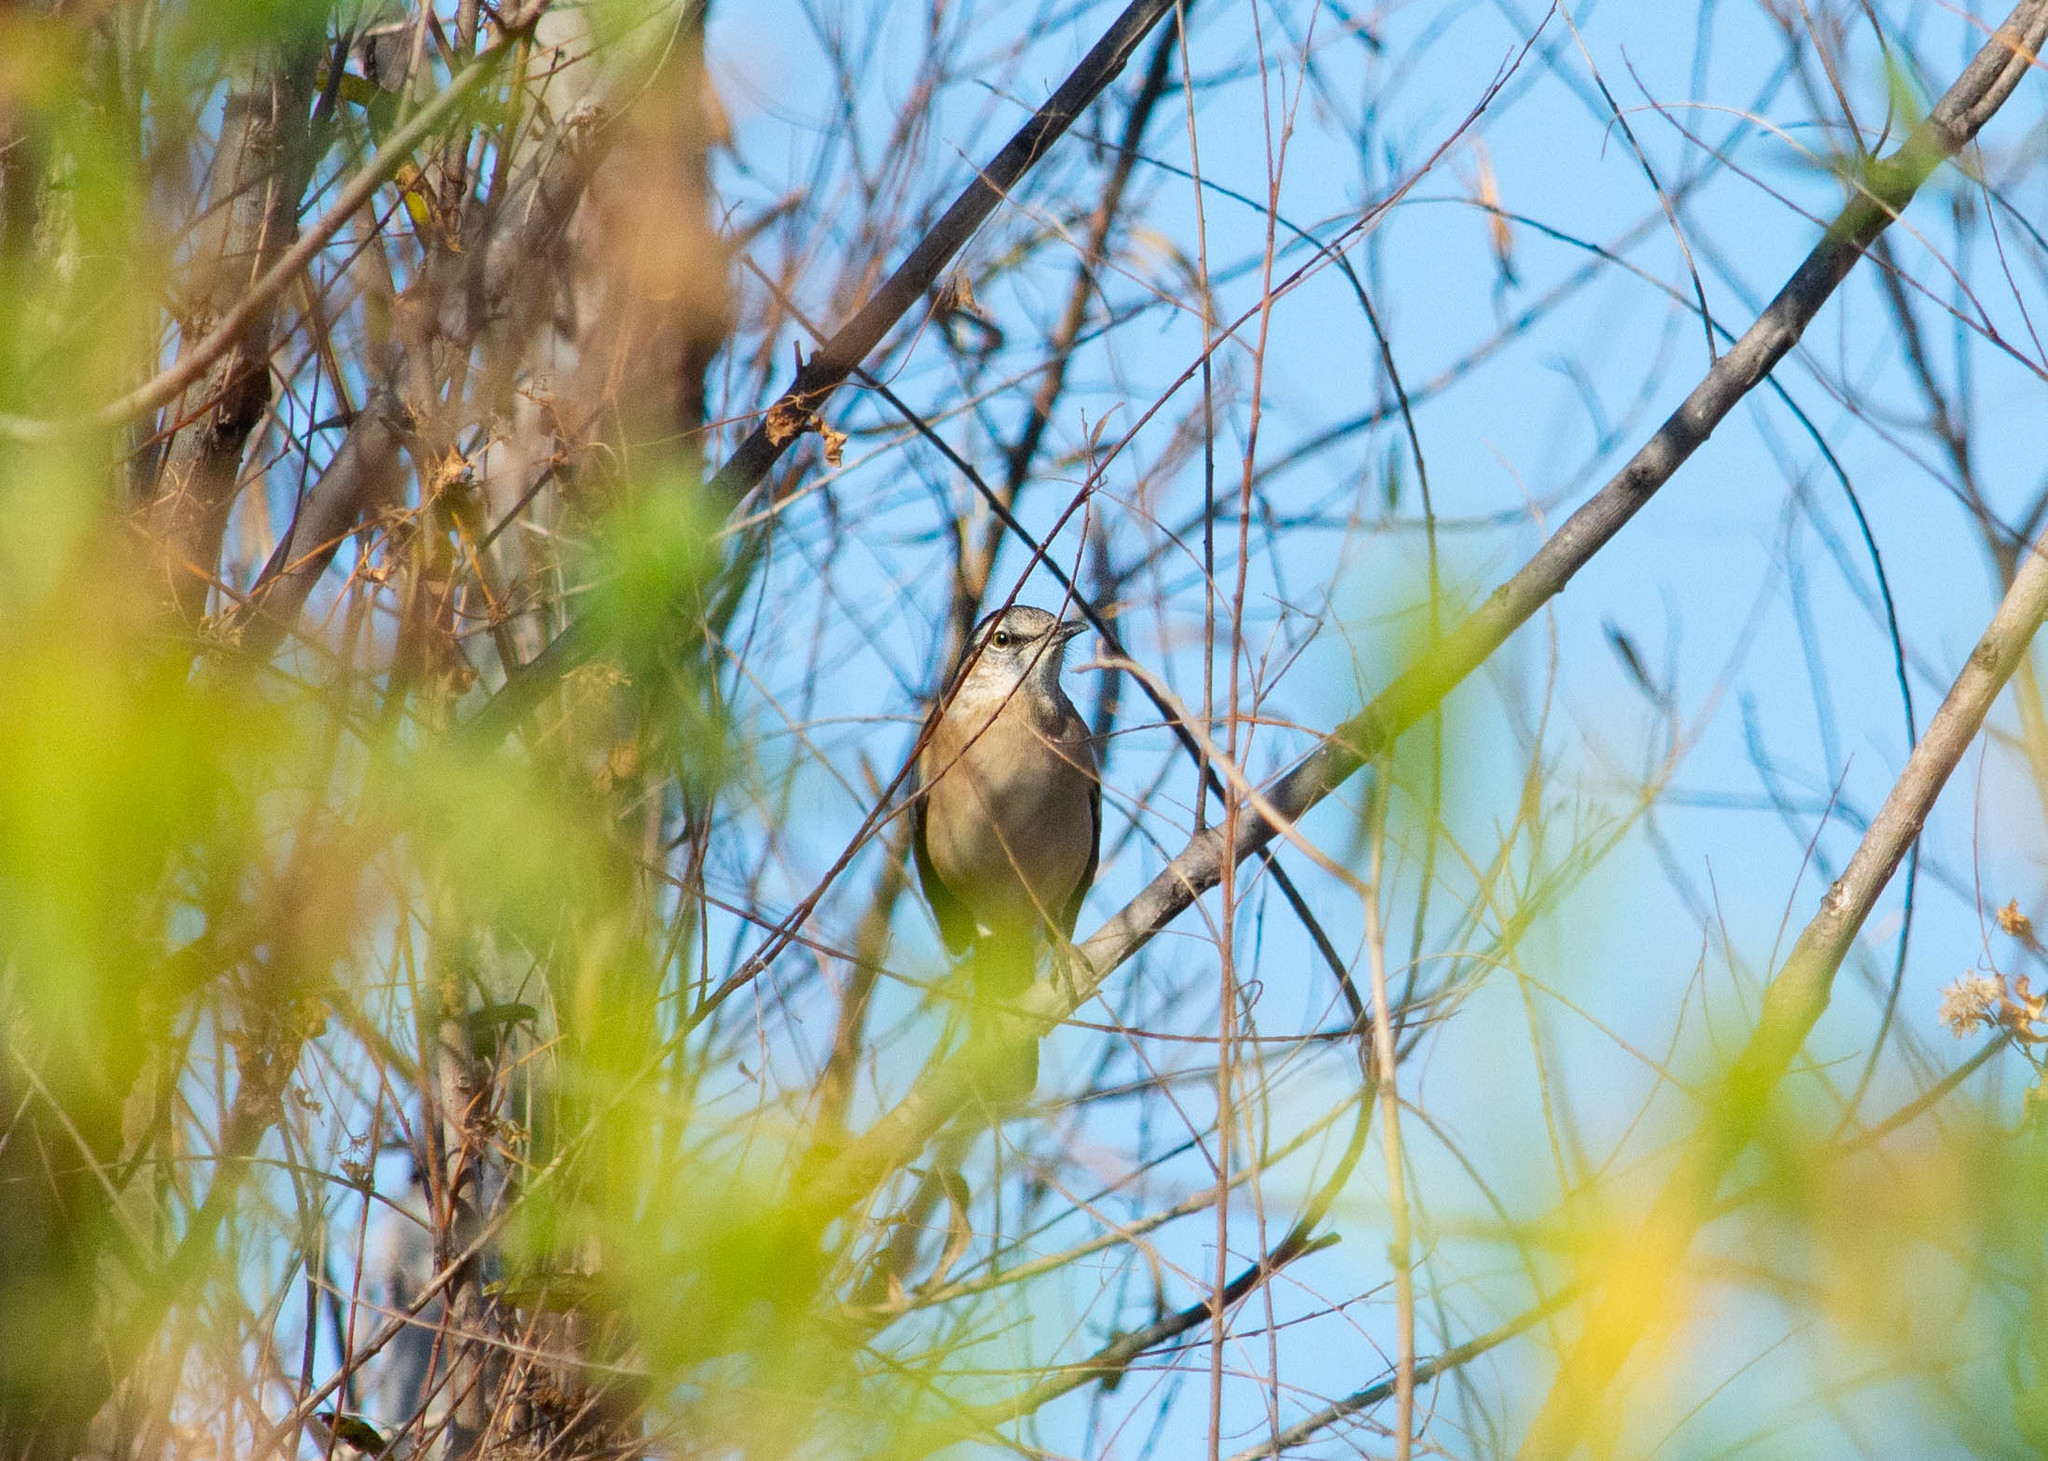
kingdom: Animalia
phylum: Chordata
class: Aves
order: Passeriformes
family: Mimidae
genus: Mimus
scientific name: Mimus triurus
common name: White-banded mockingbird
